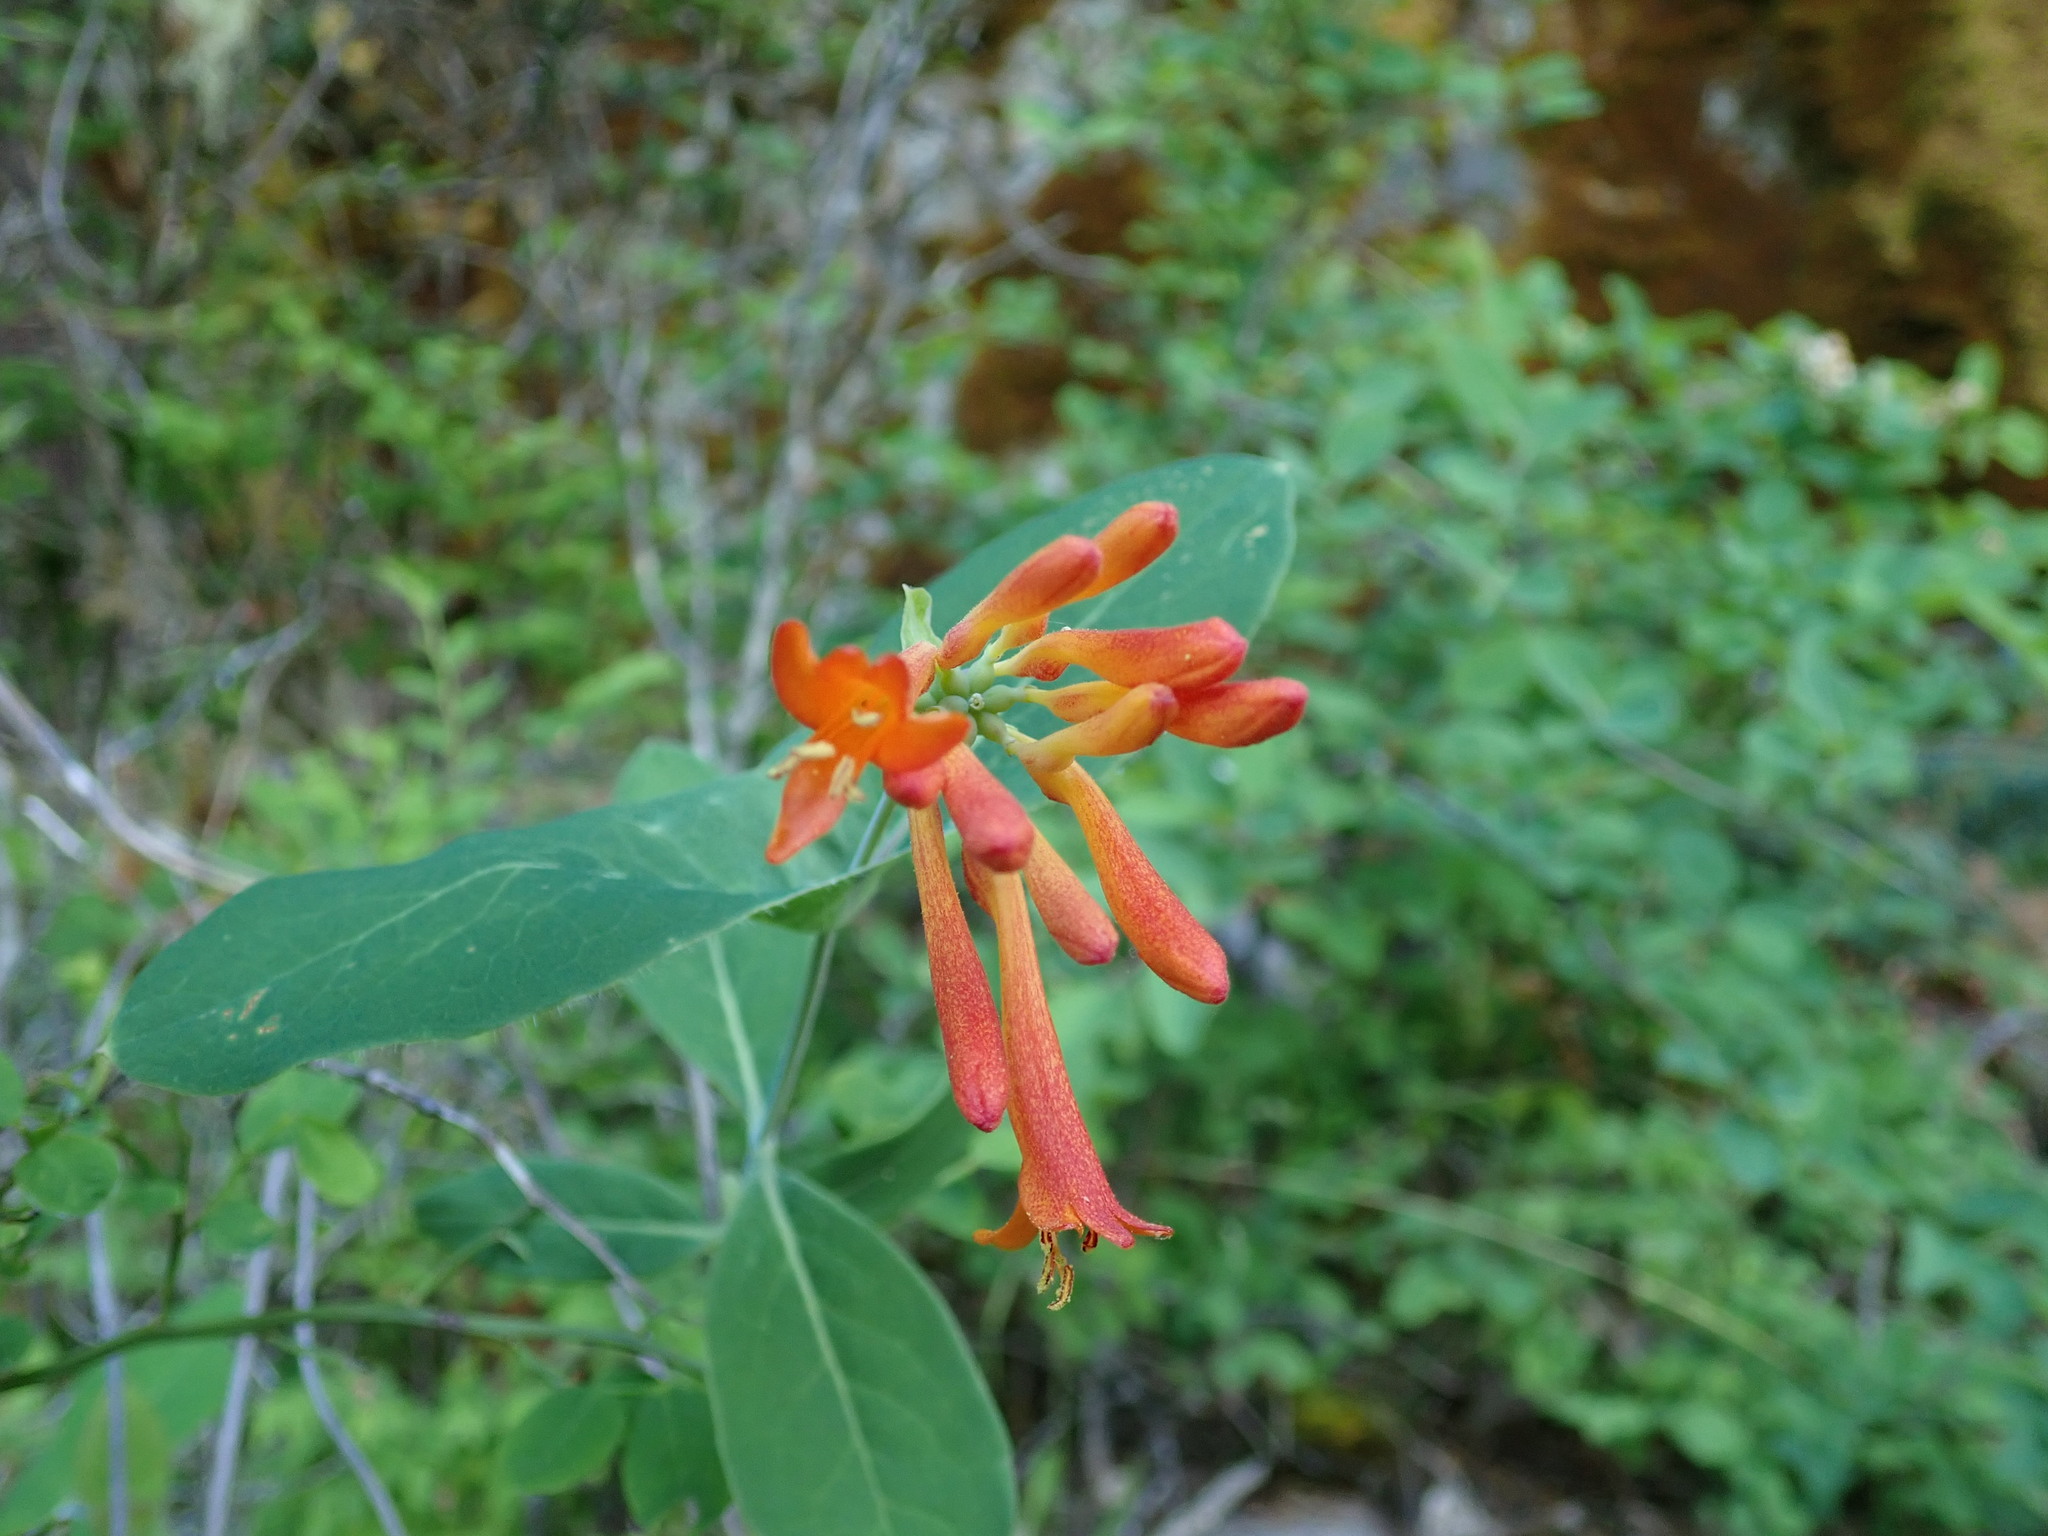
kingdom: Plantae
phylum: Tracheophyta
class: Magnoliopsida
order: Dipsacales
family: Caprifoliaceae
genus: Lonicera
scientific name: Lonicera ciliosa
